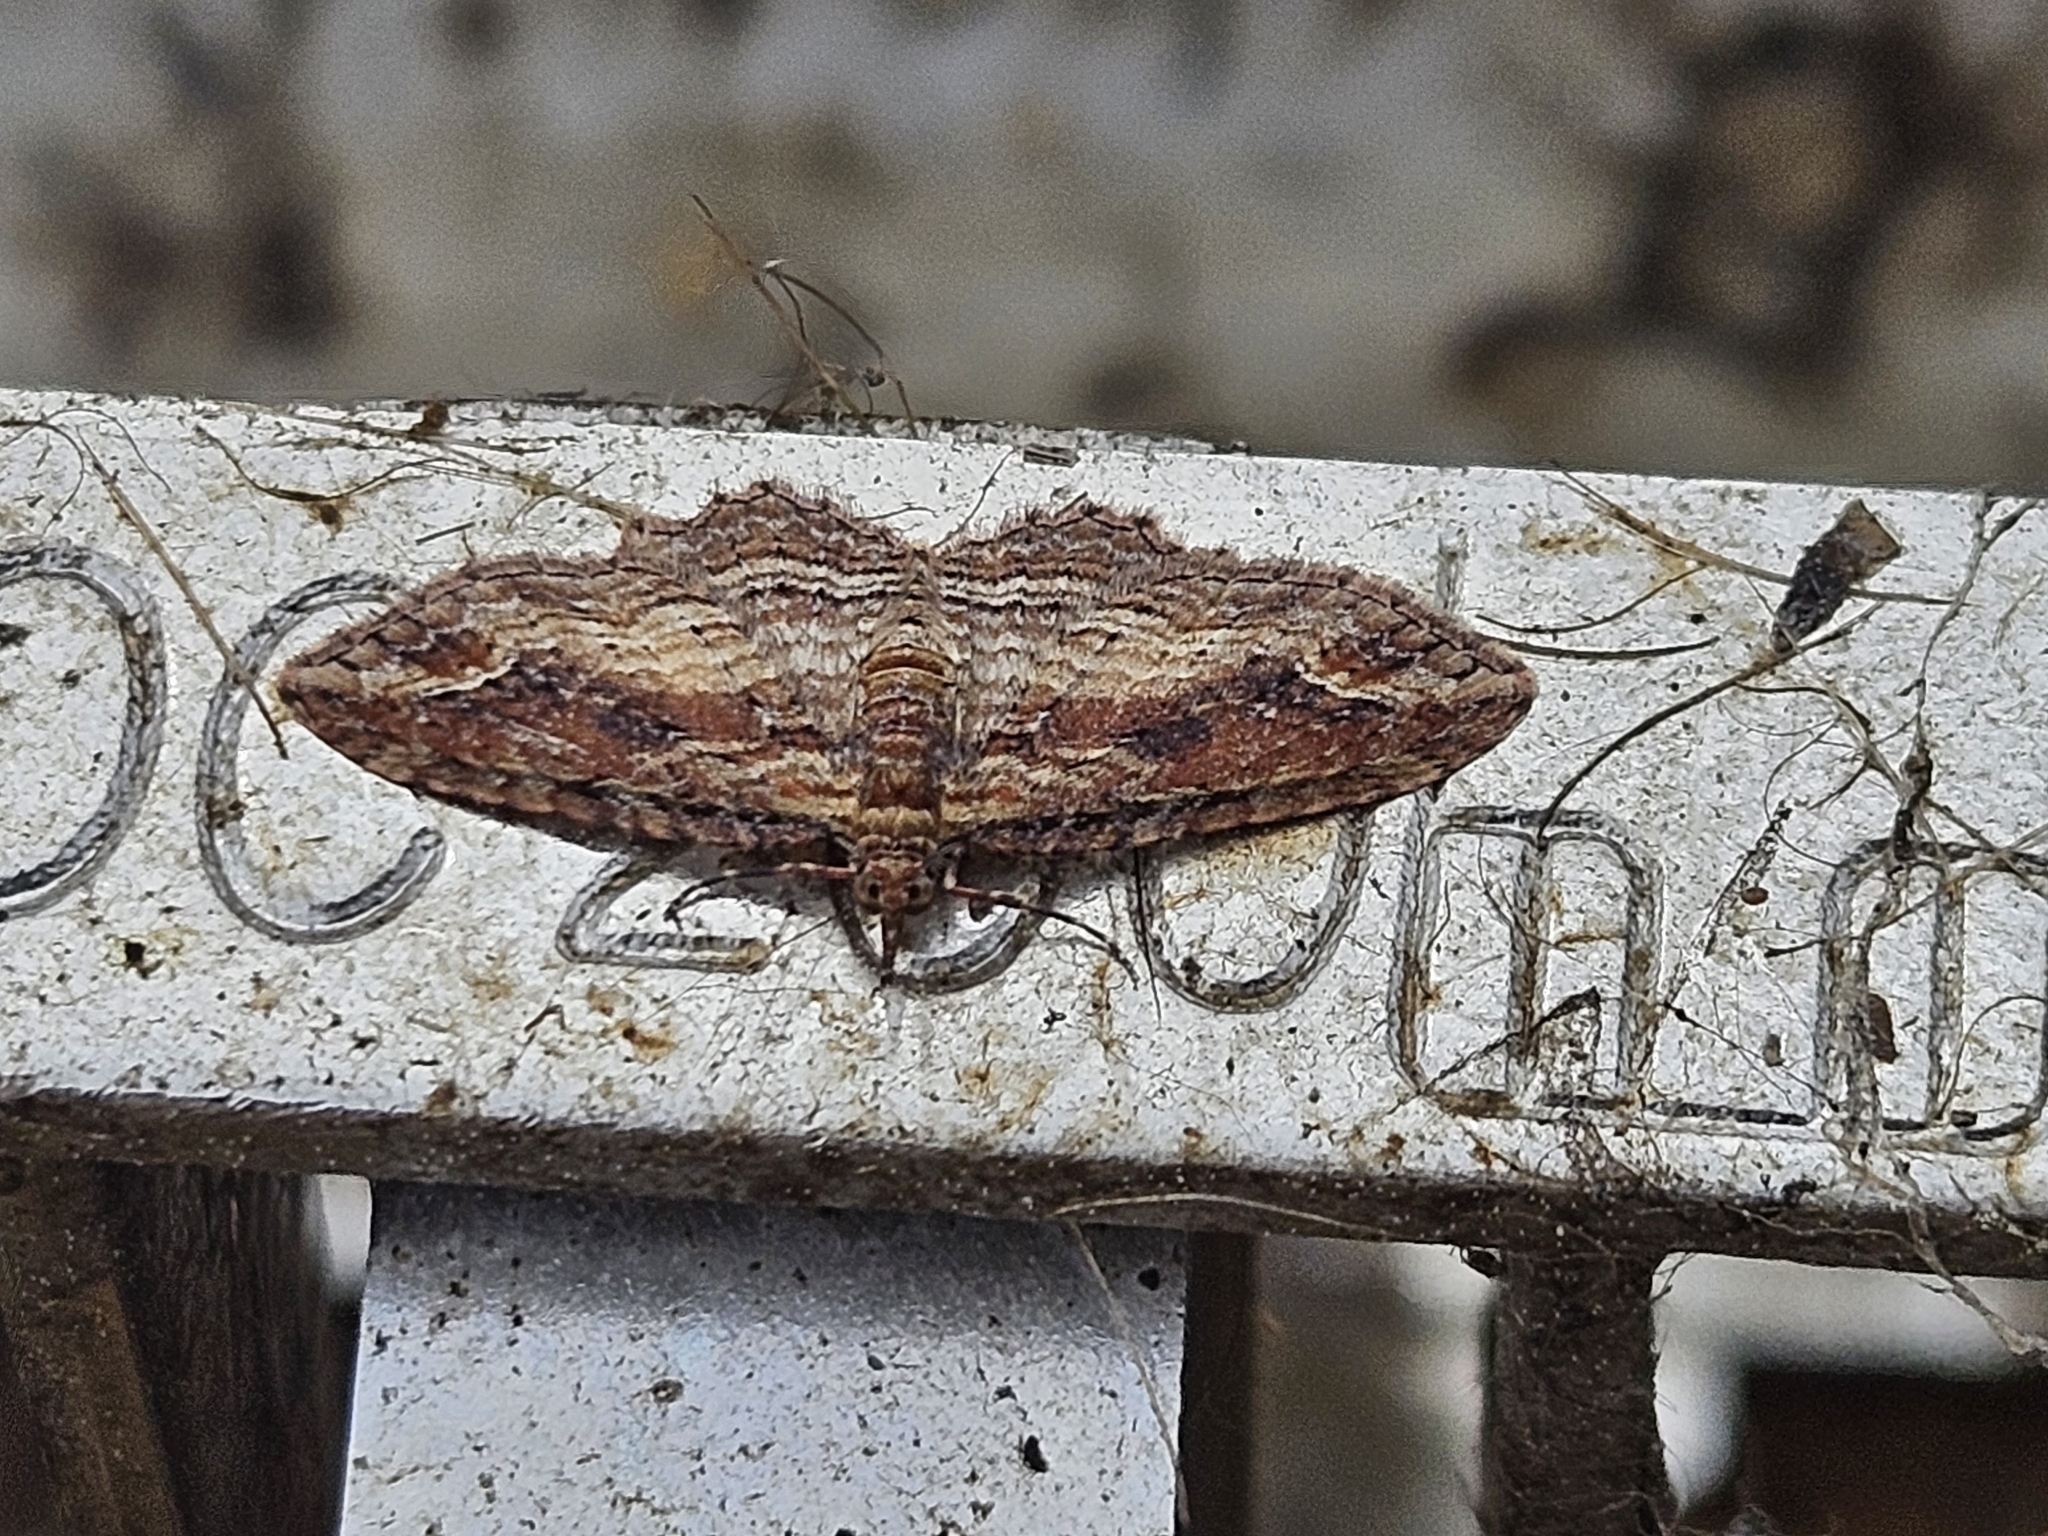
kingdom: Animalia
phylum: Arthropoda
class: Insecta
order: Lepidoptera
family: Geometridae
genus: Chloroclystis
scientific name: Chloroclystis filata
